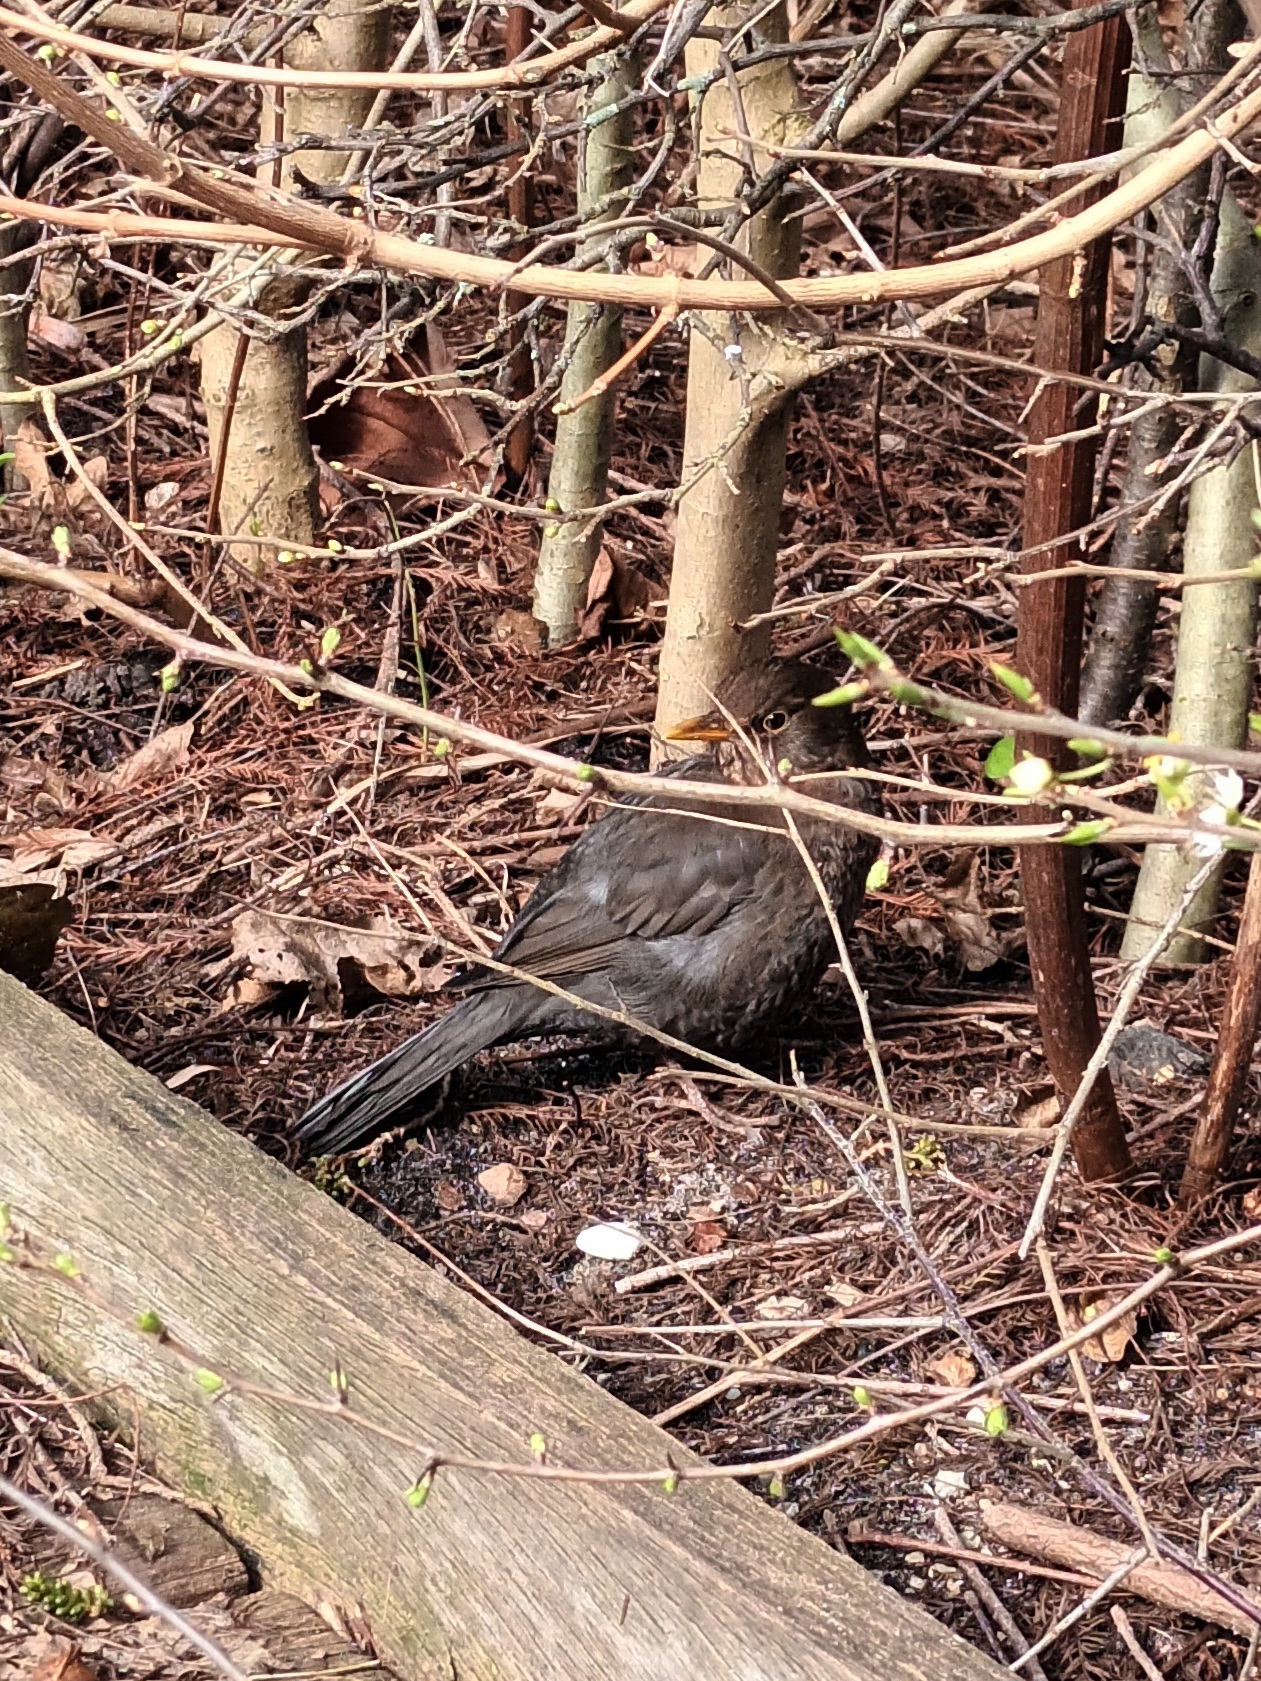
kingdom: Animalia
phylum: Chordata
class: Aves
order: Passeriformes
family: Turdidae
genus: Turdus
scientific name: Turdus merula
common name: Common blackbird
